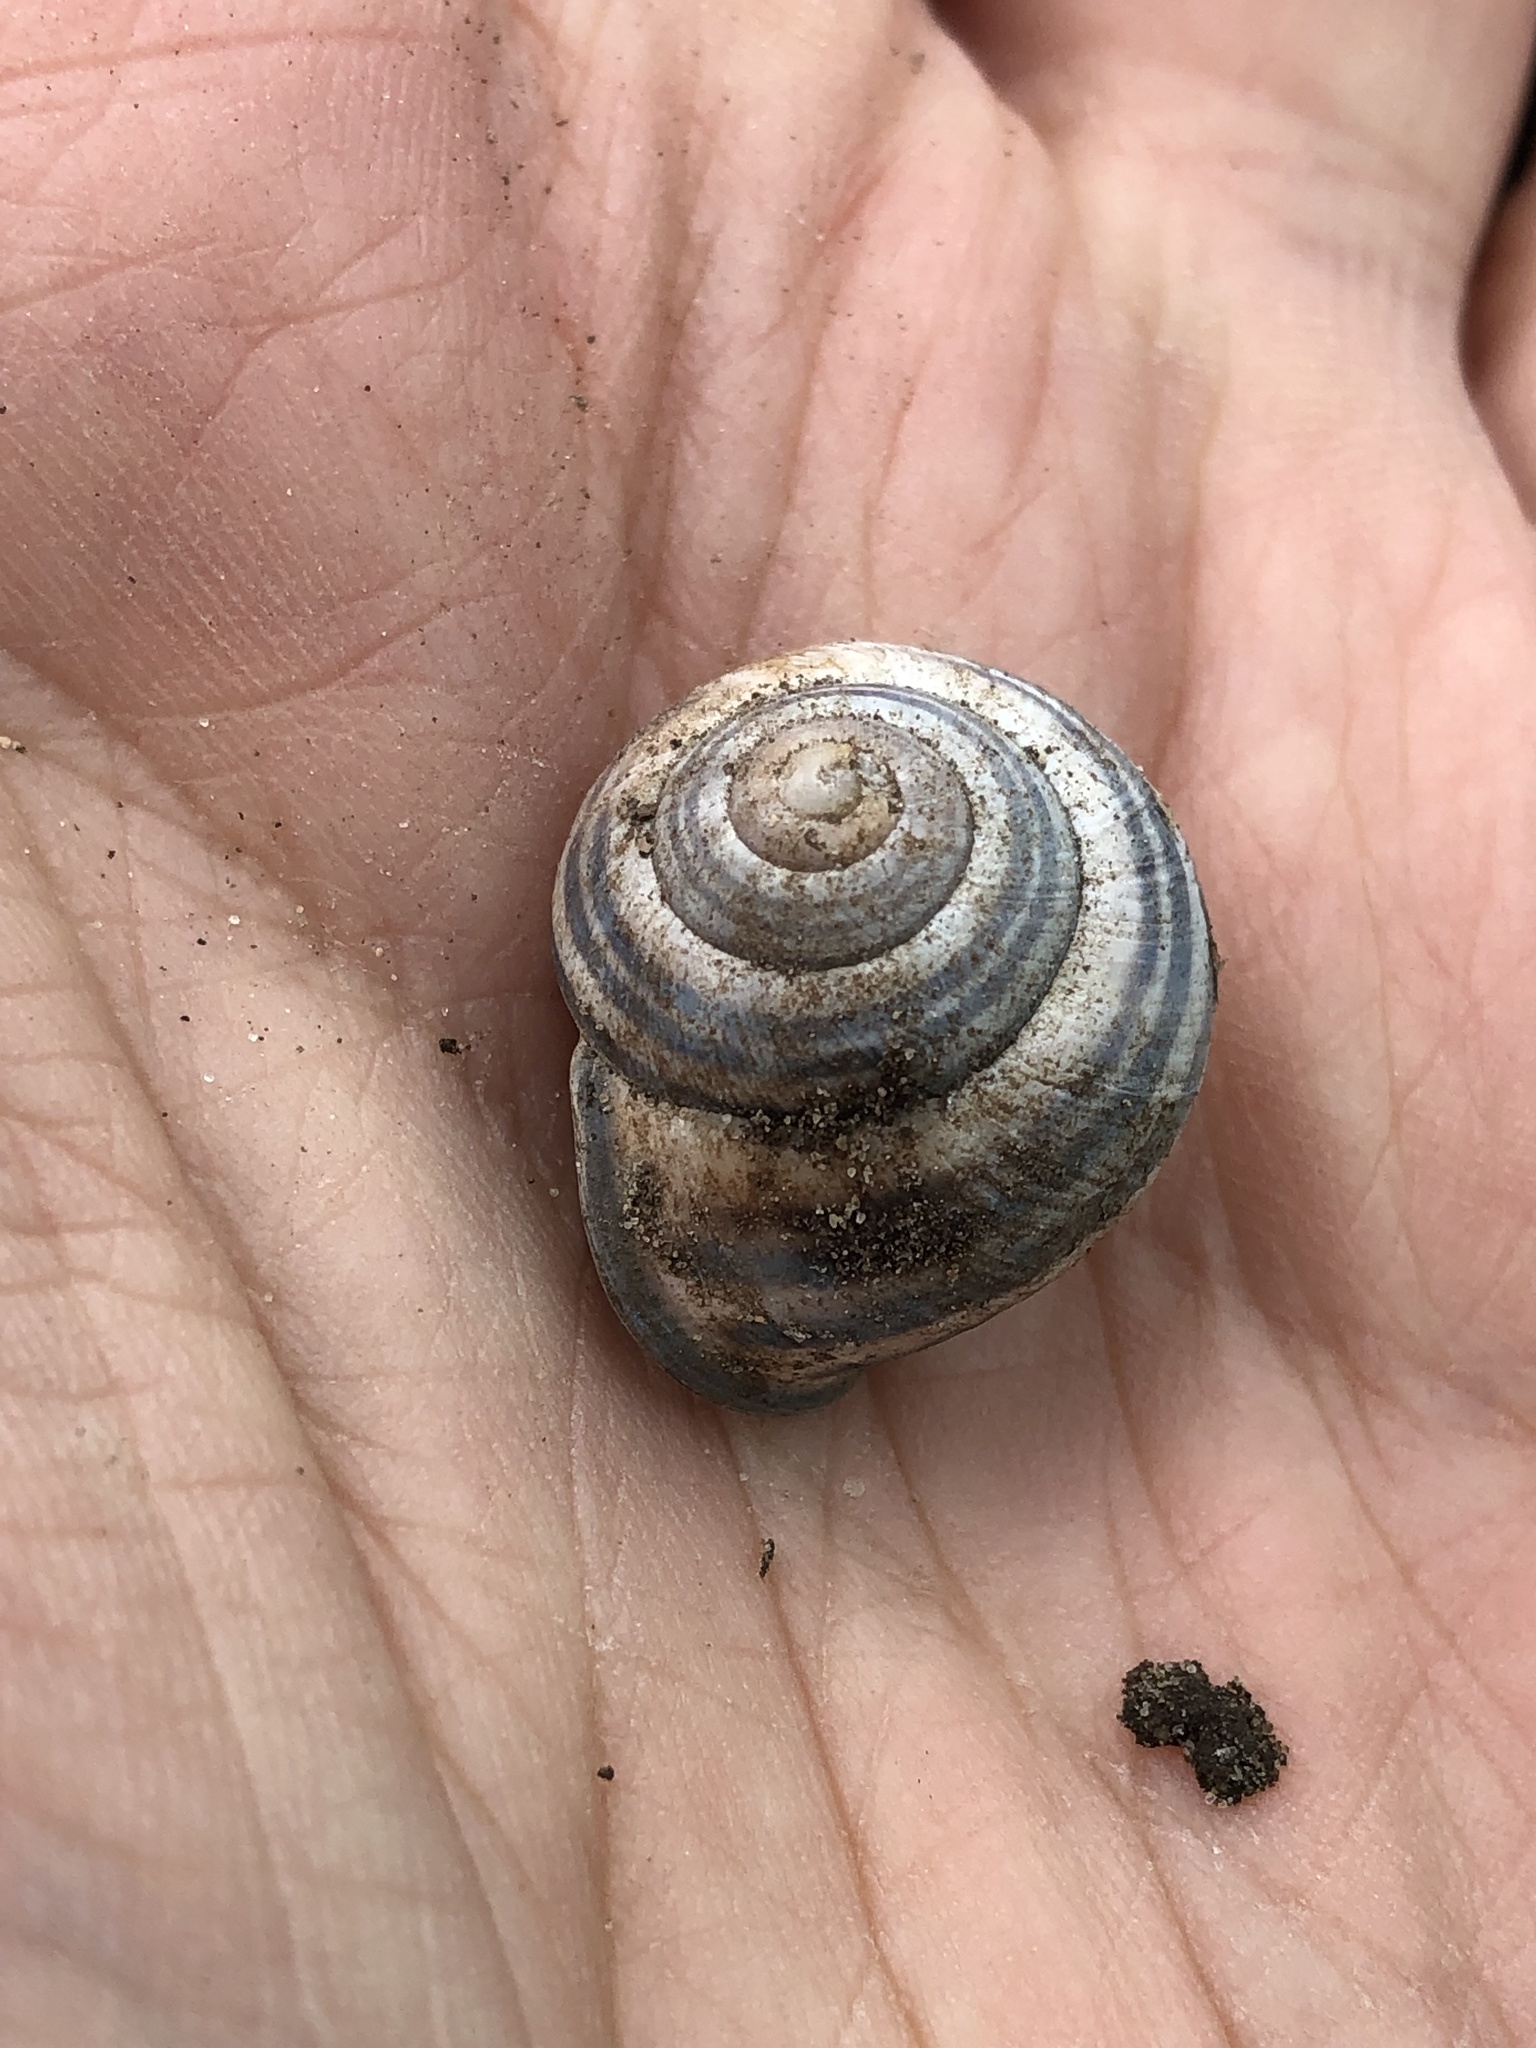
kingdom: Animalia
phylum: Mollusca
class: Gastropoda
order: Stylommatophora
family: Helicidae
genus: Cepaea
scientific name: Cepaea nemoralis
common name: Grovesnail
